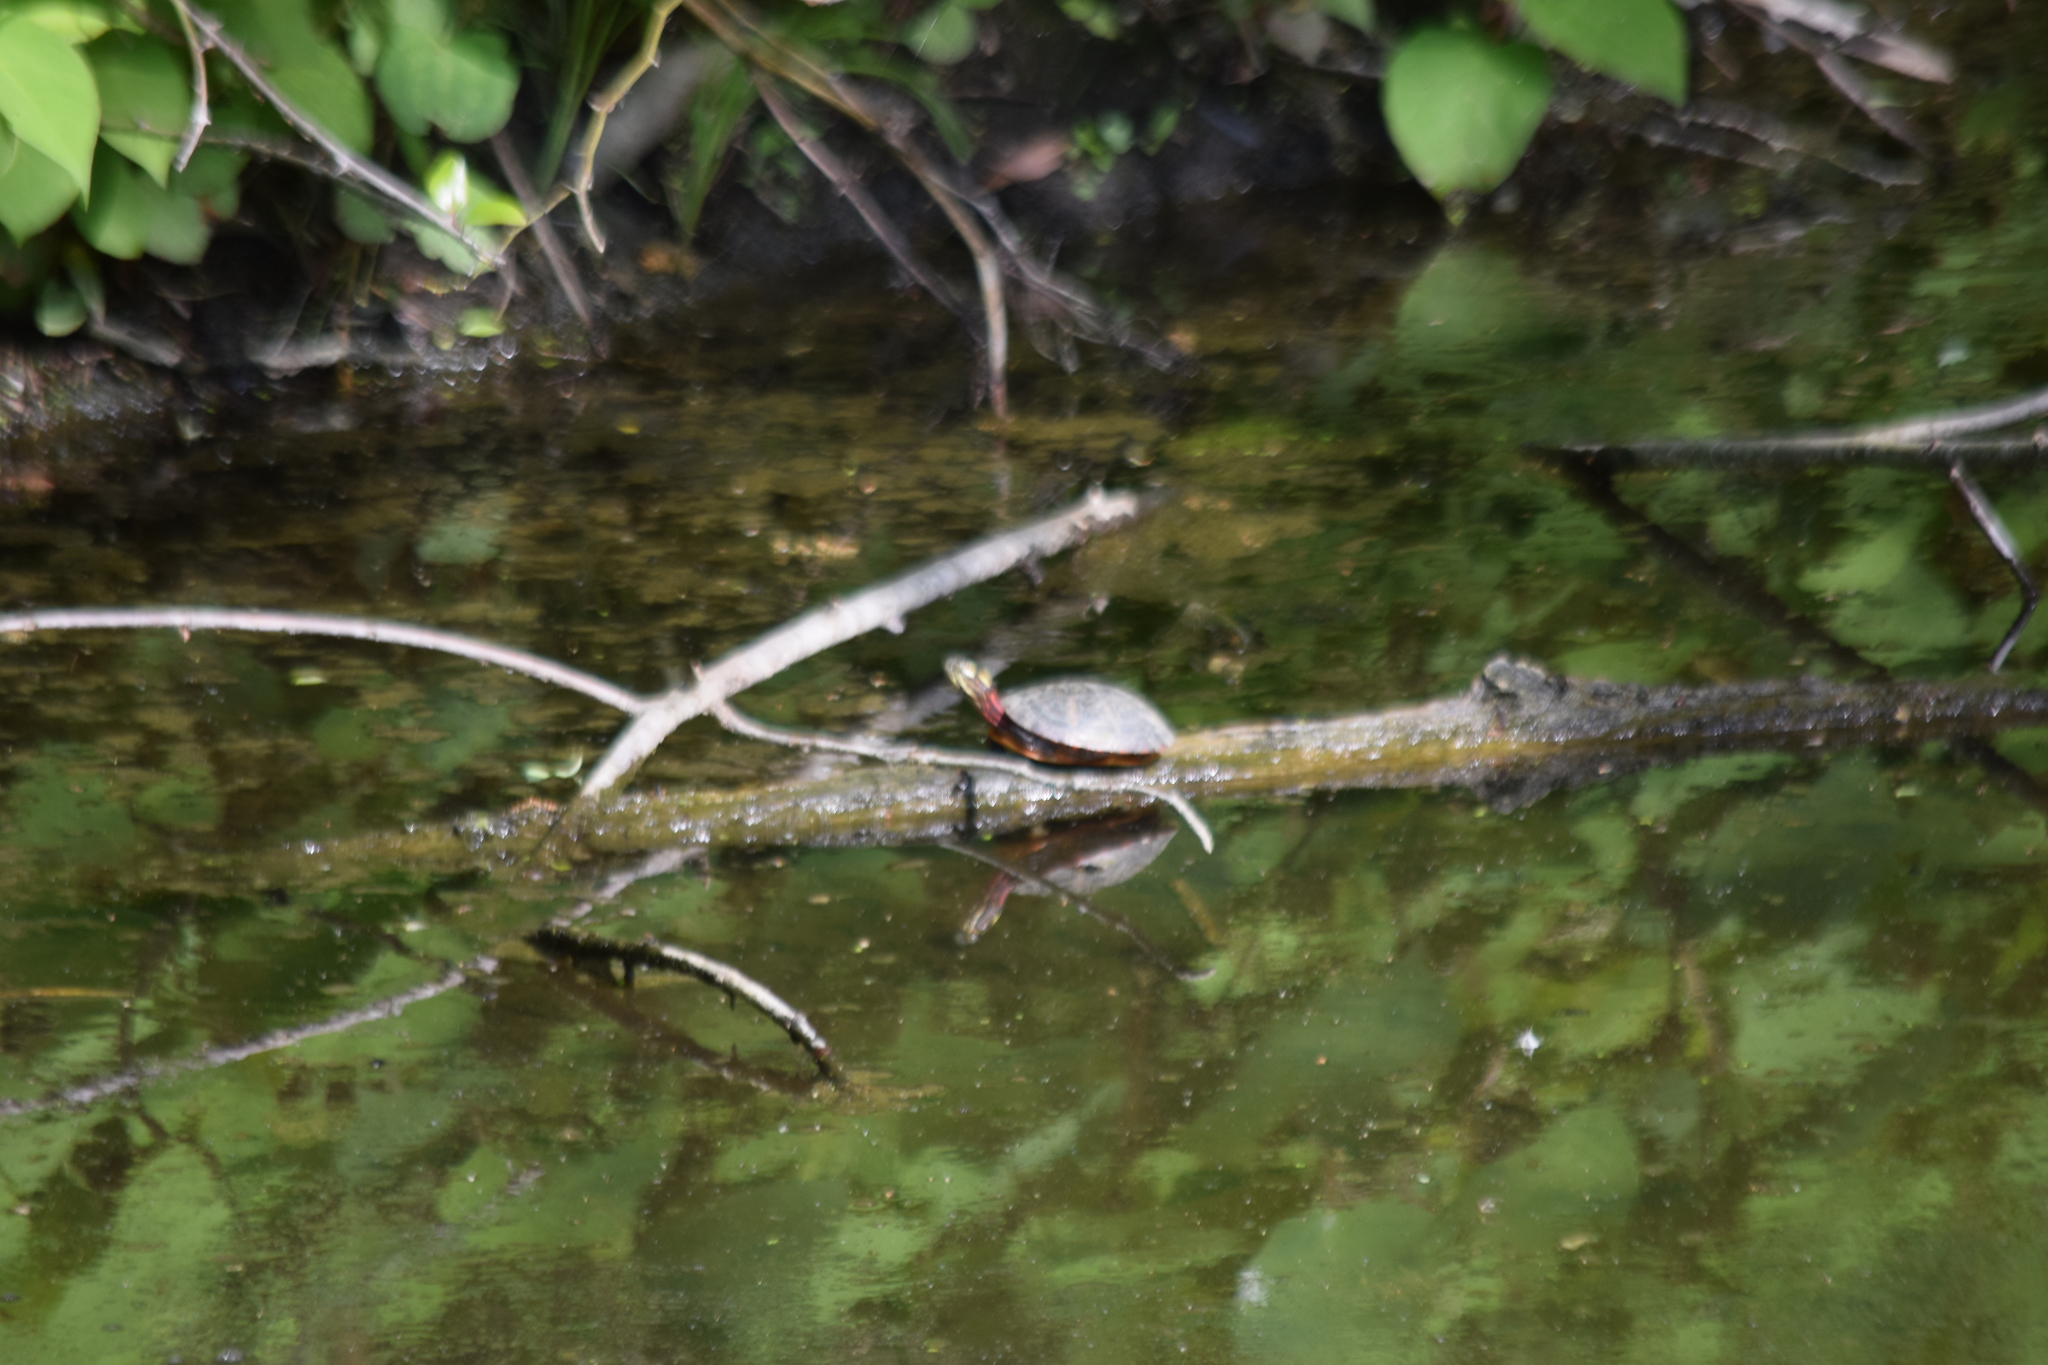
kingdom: Animalia
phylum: Chordata
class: Testudines
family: Emydidae
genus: Chrysemys
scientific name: Chrysemys picta
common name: Painted turtle
